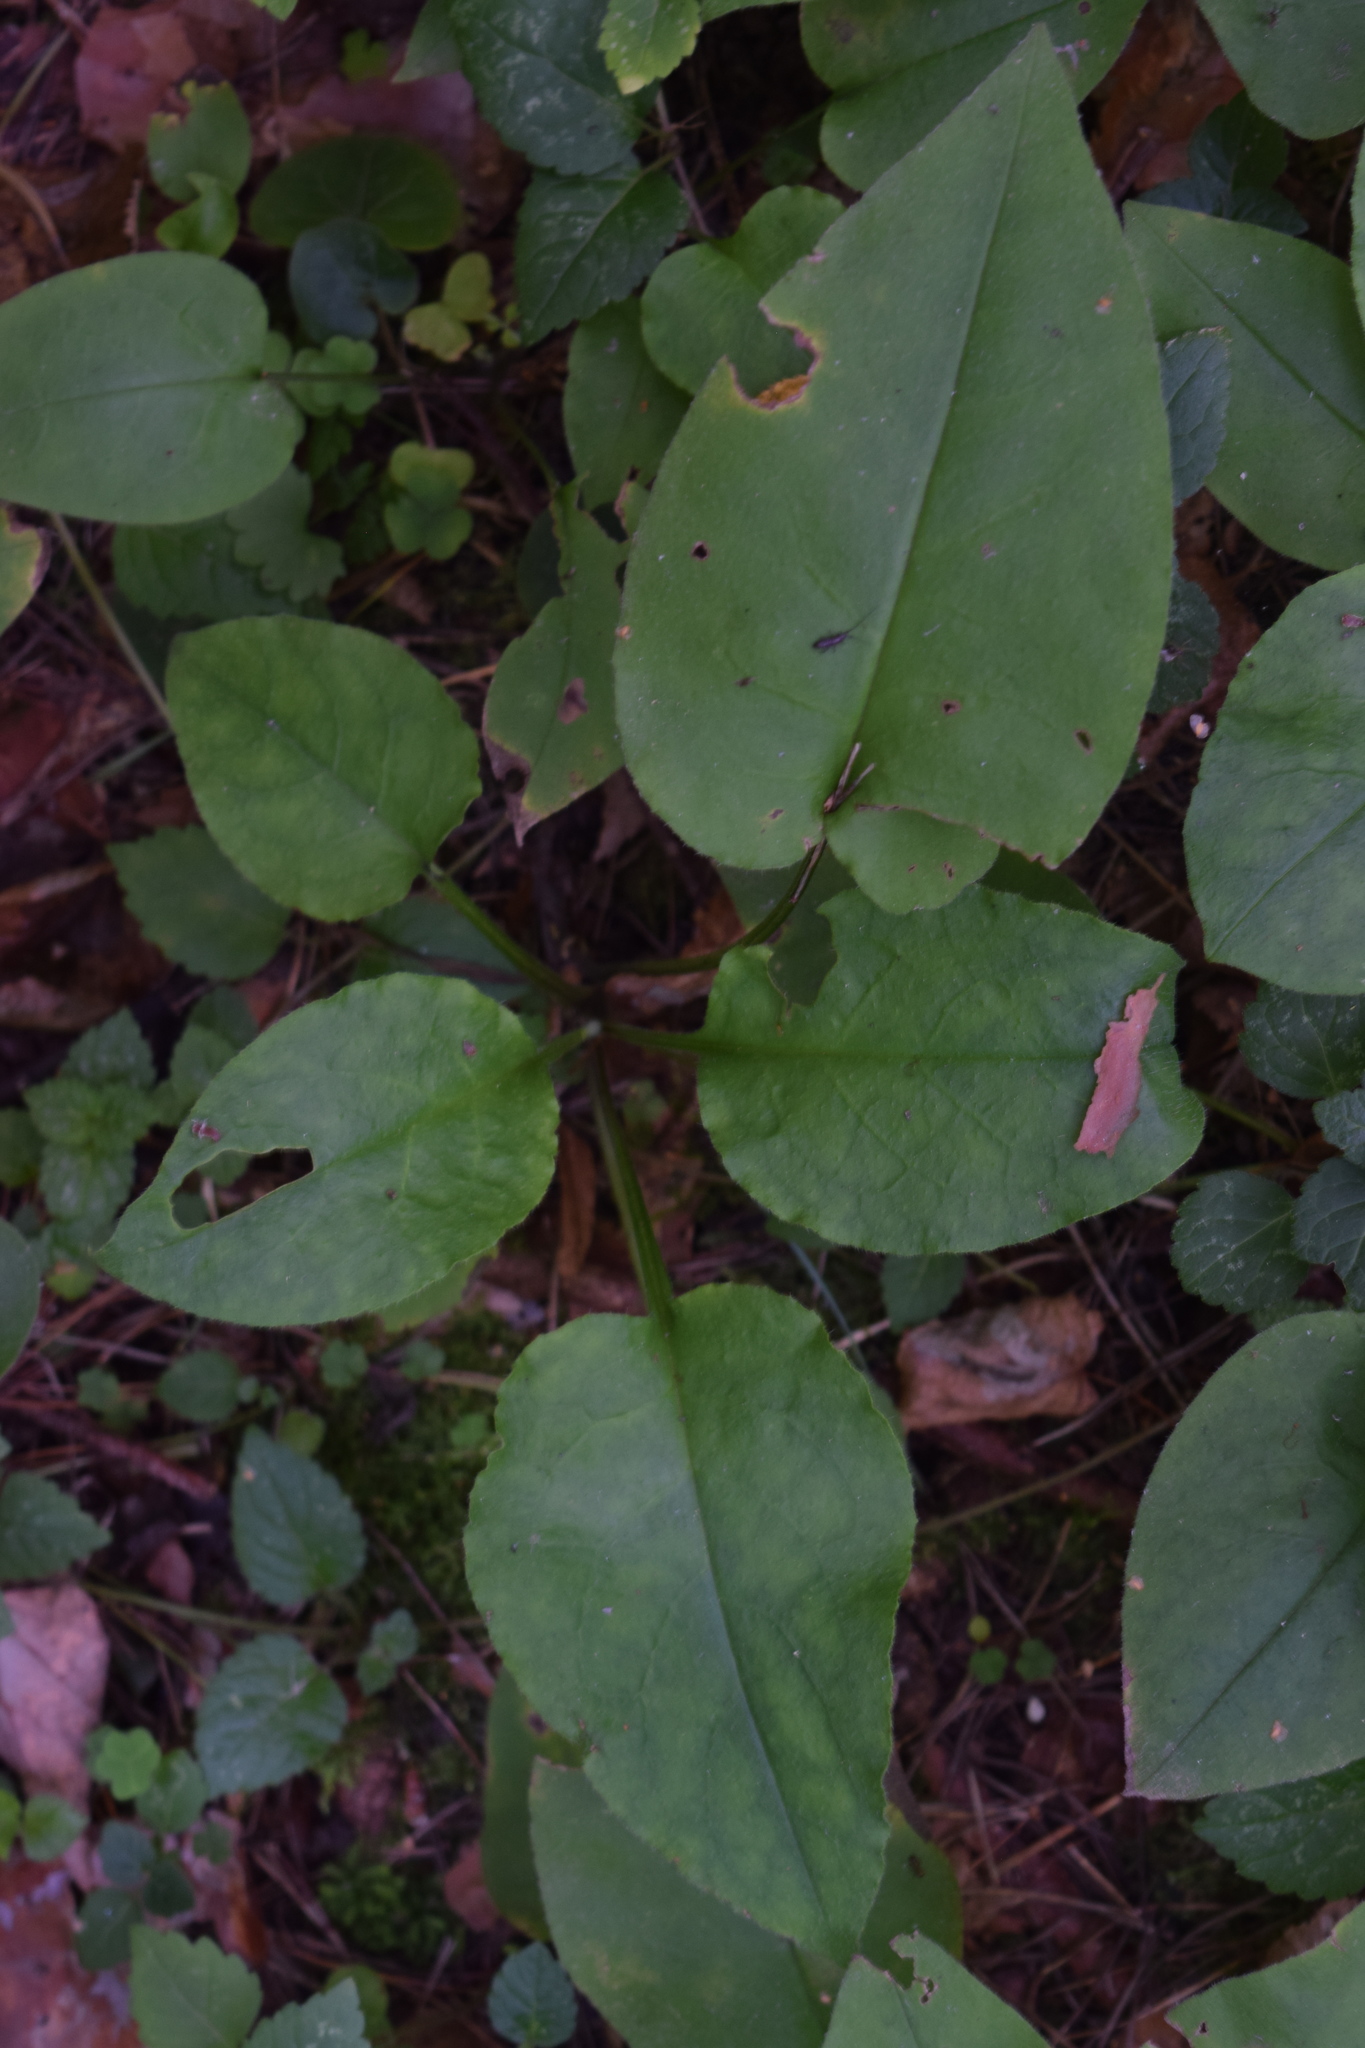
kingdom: Plantae
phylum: Tracheophyta
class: Magnoliopsida
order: Boraginales
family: Boraginaceae
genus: Pulmonaria
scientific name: Pulmonaria obscura
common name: Suffolk lungwort
